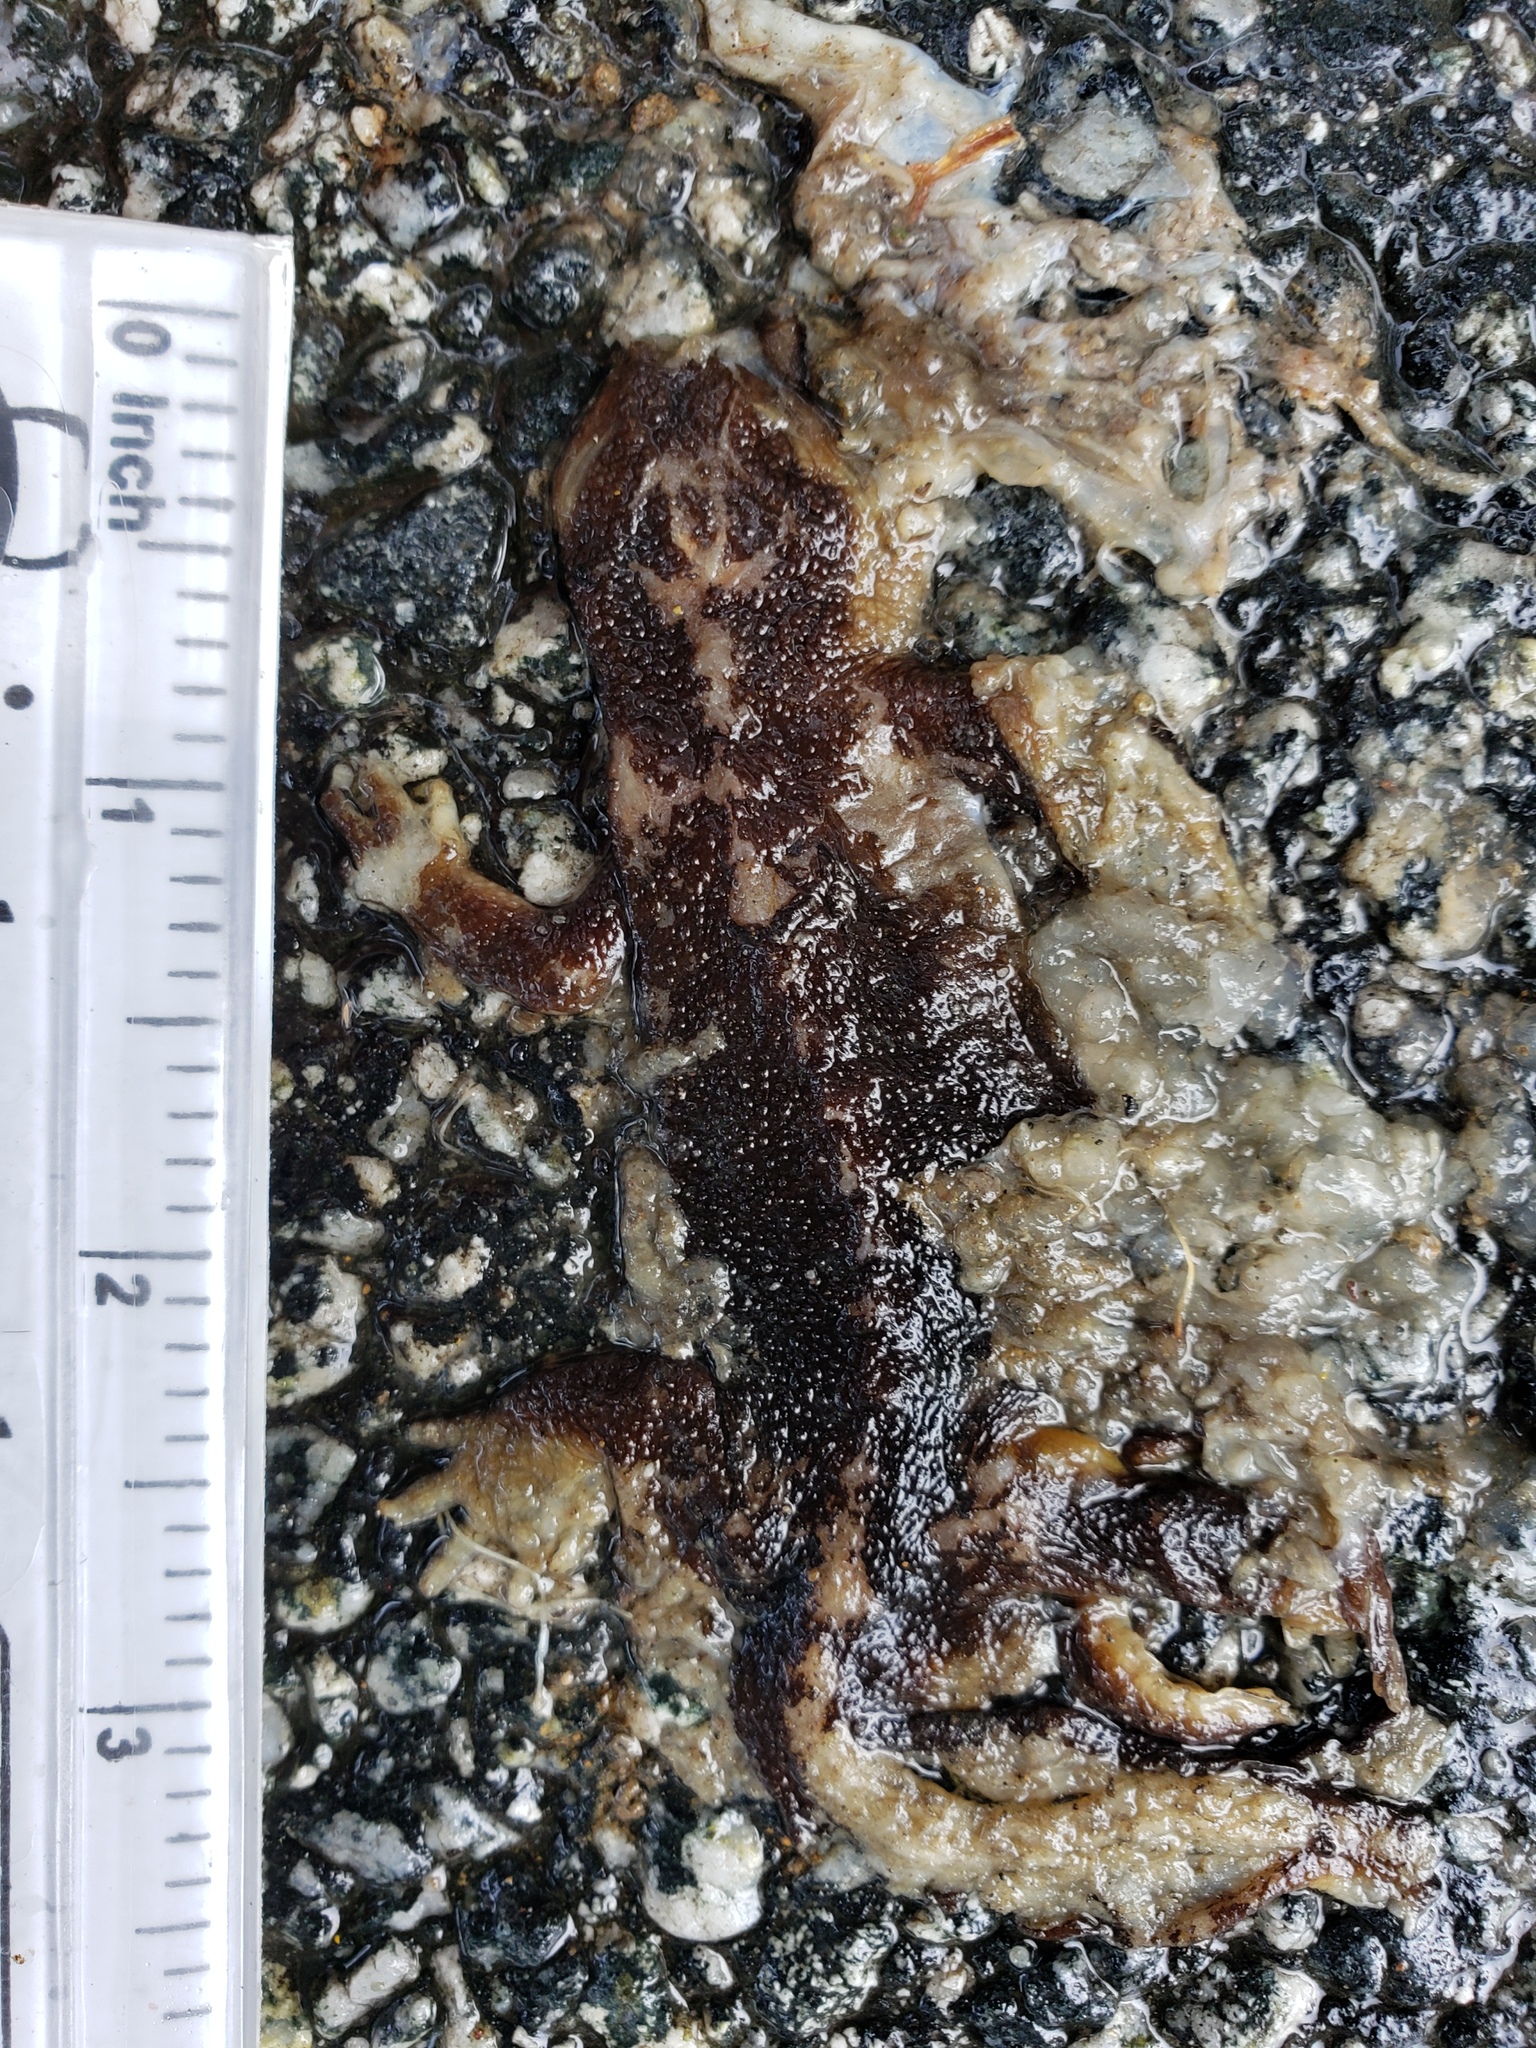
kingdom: Animalia
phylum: Chordata
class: Amphibia
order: Caudata
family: Salamandridae
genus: Taricha
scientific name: Taricha
